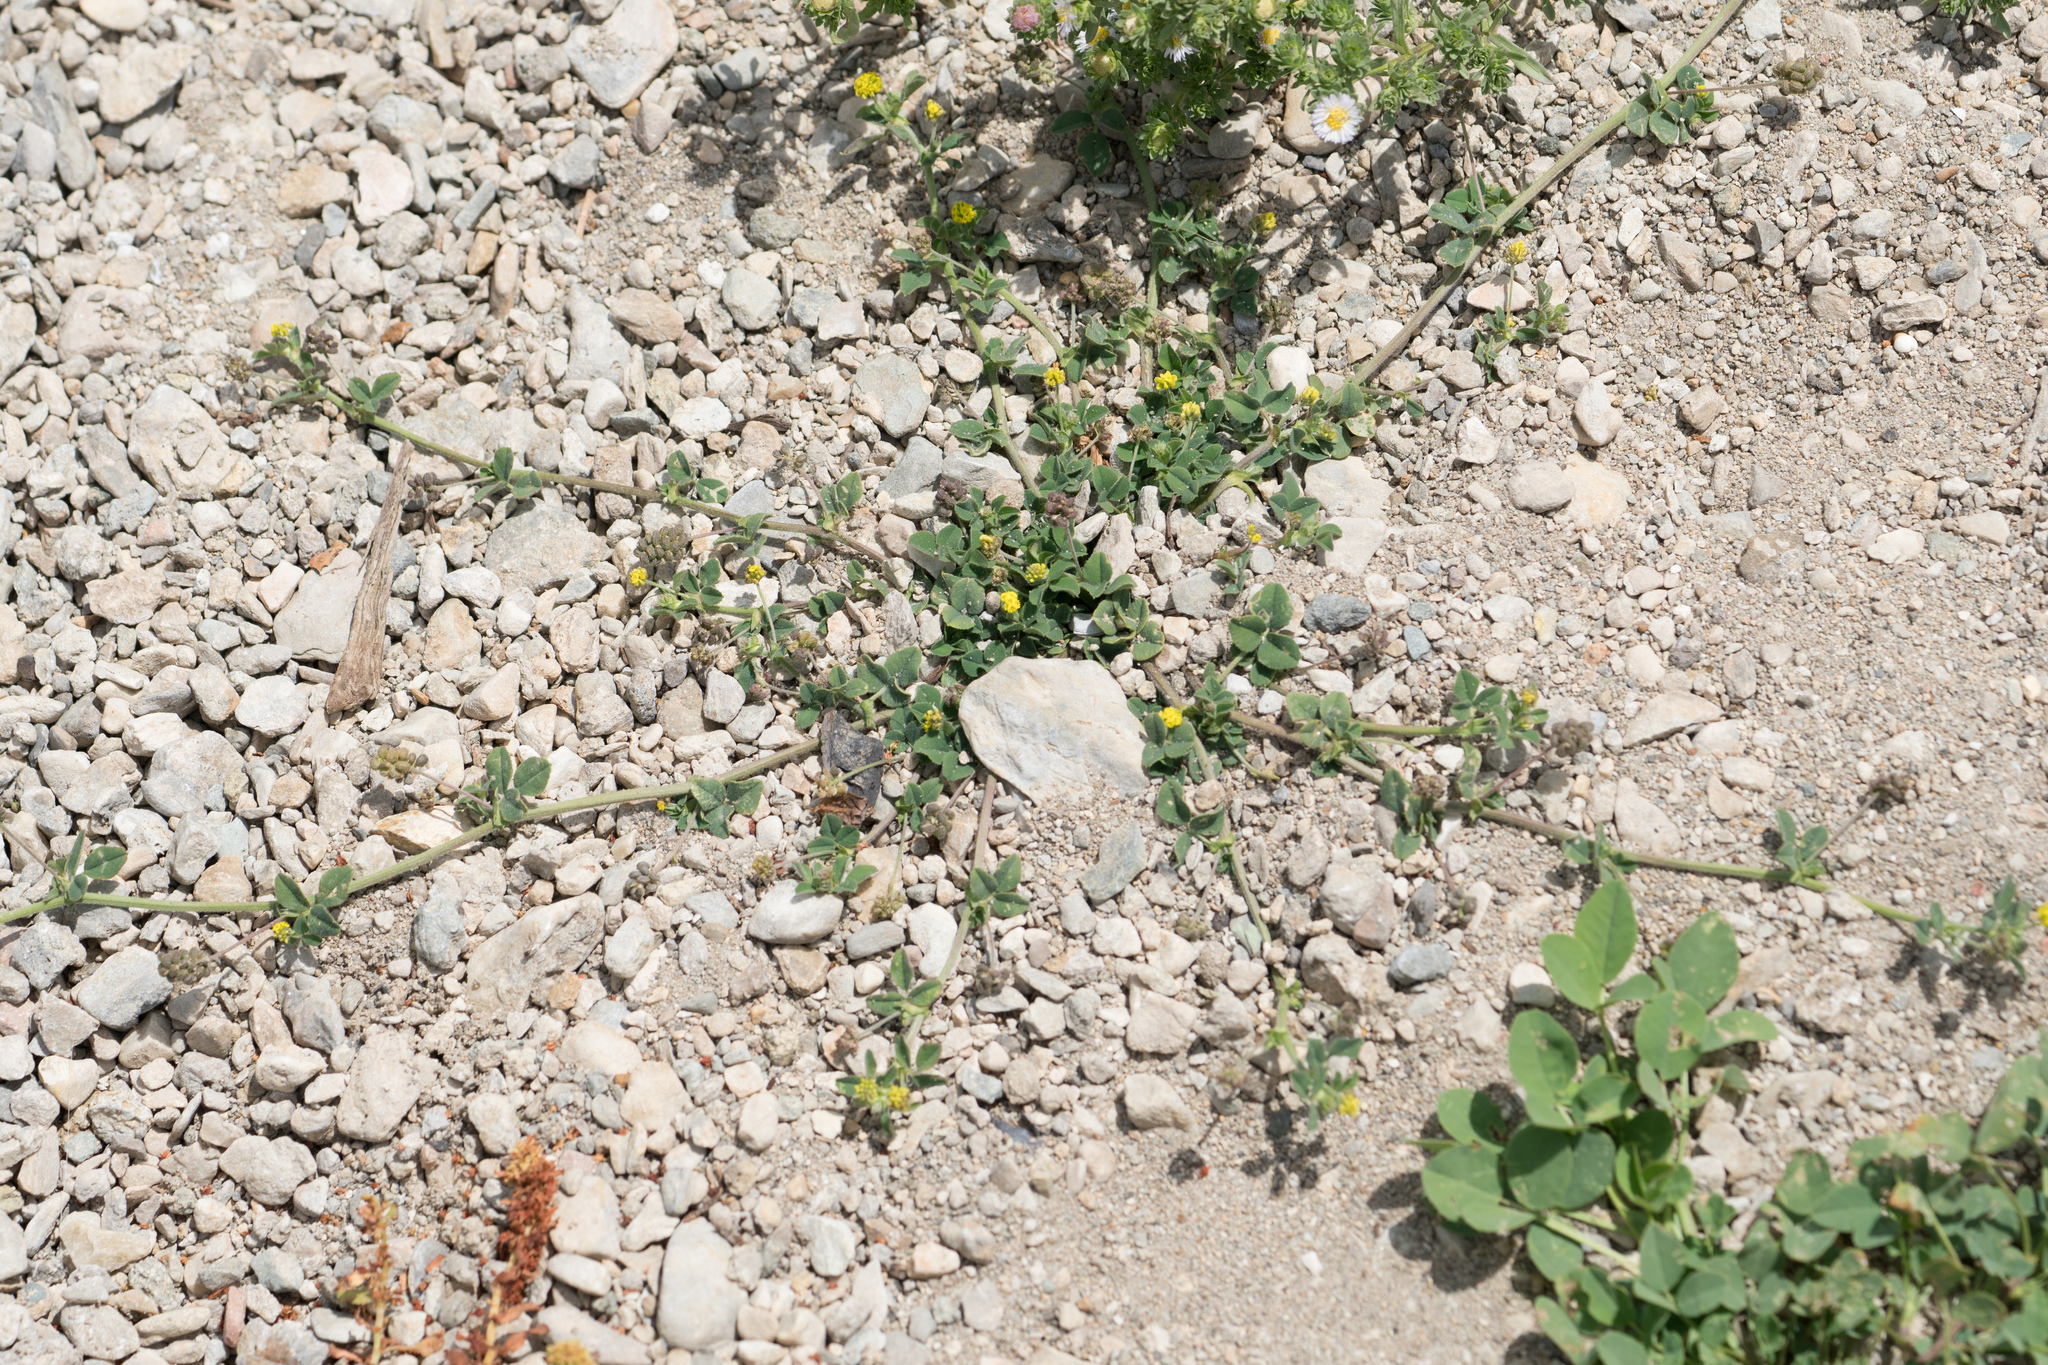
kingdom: Plantae
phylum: Tracheophyta
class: Magnoliopsida
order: Fabales
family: Fabaceae
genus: Medicago
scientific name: Medicago lupulina
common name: Black medick
